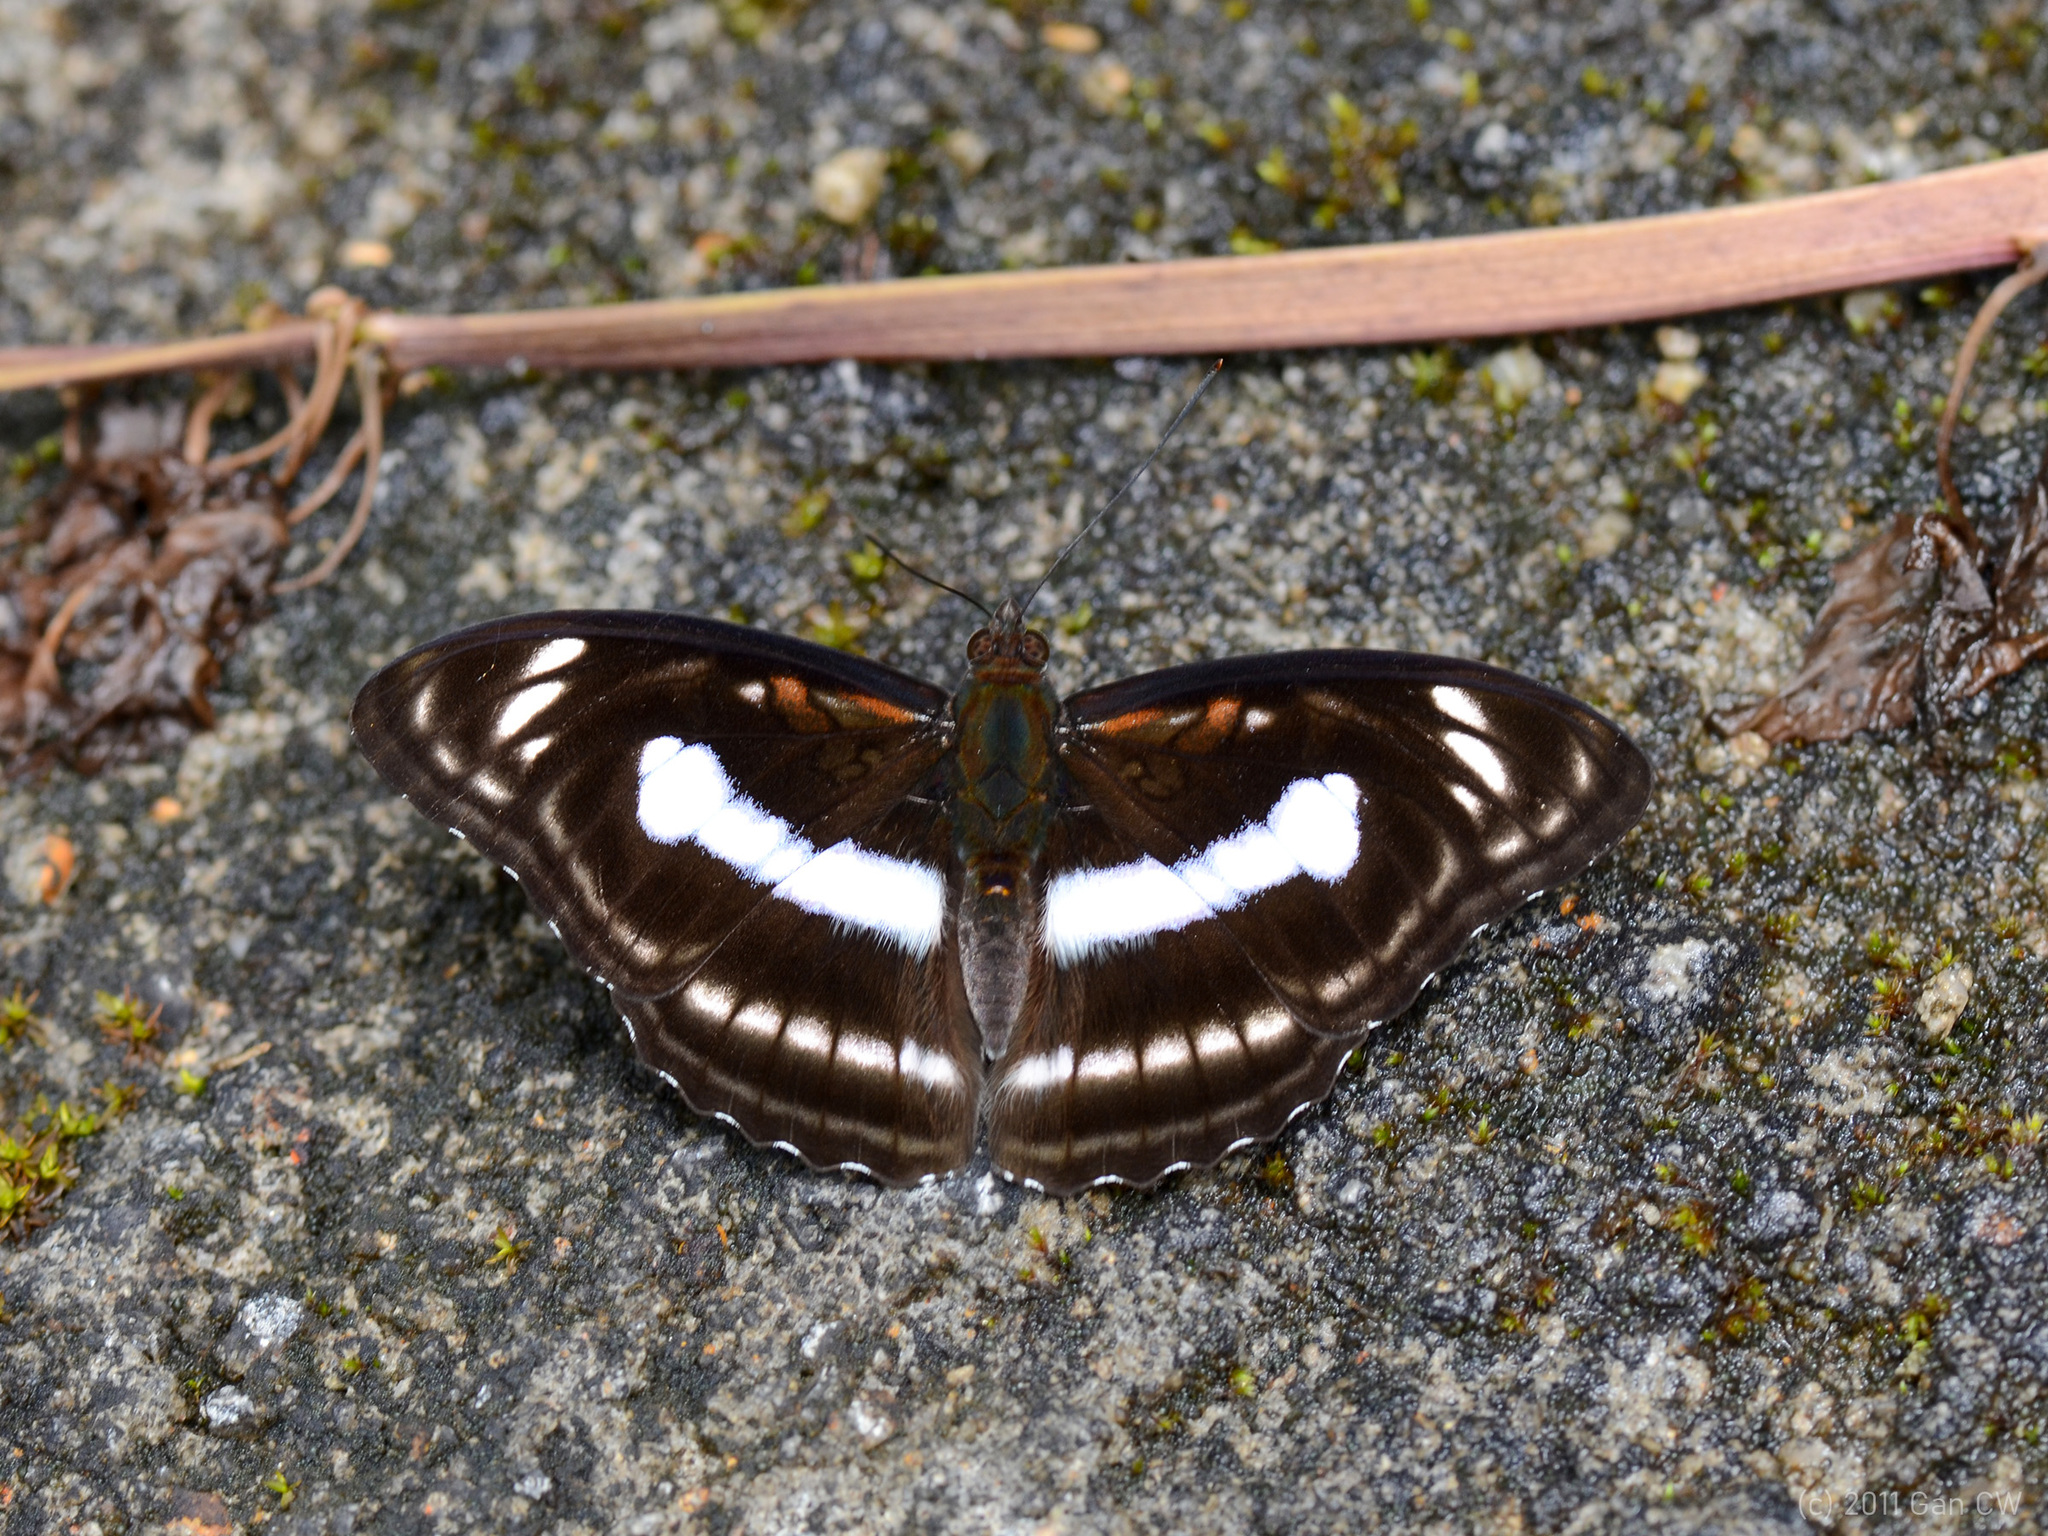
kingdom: Animalia
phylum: Arthropoda
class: Insecta
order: Lepidoptera
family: Nymphalidae
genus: Parathyma
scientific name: Parathyma selenophora
